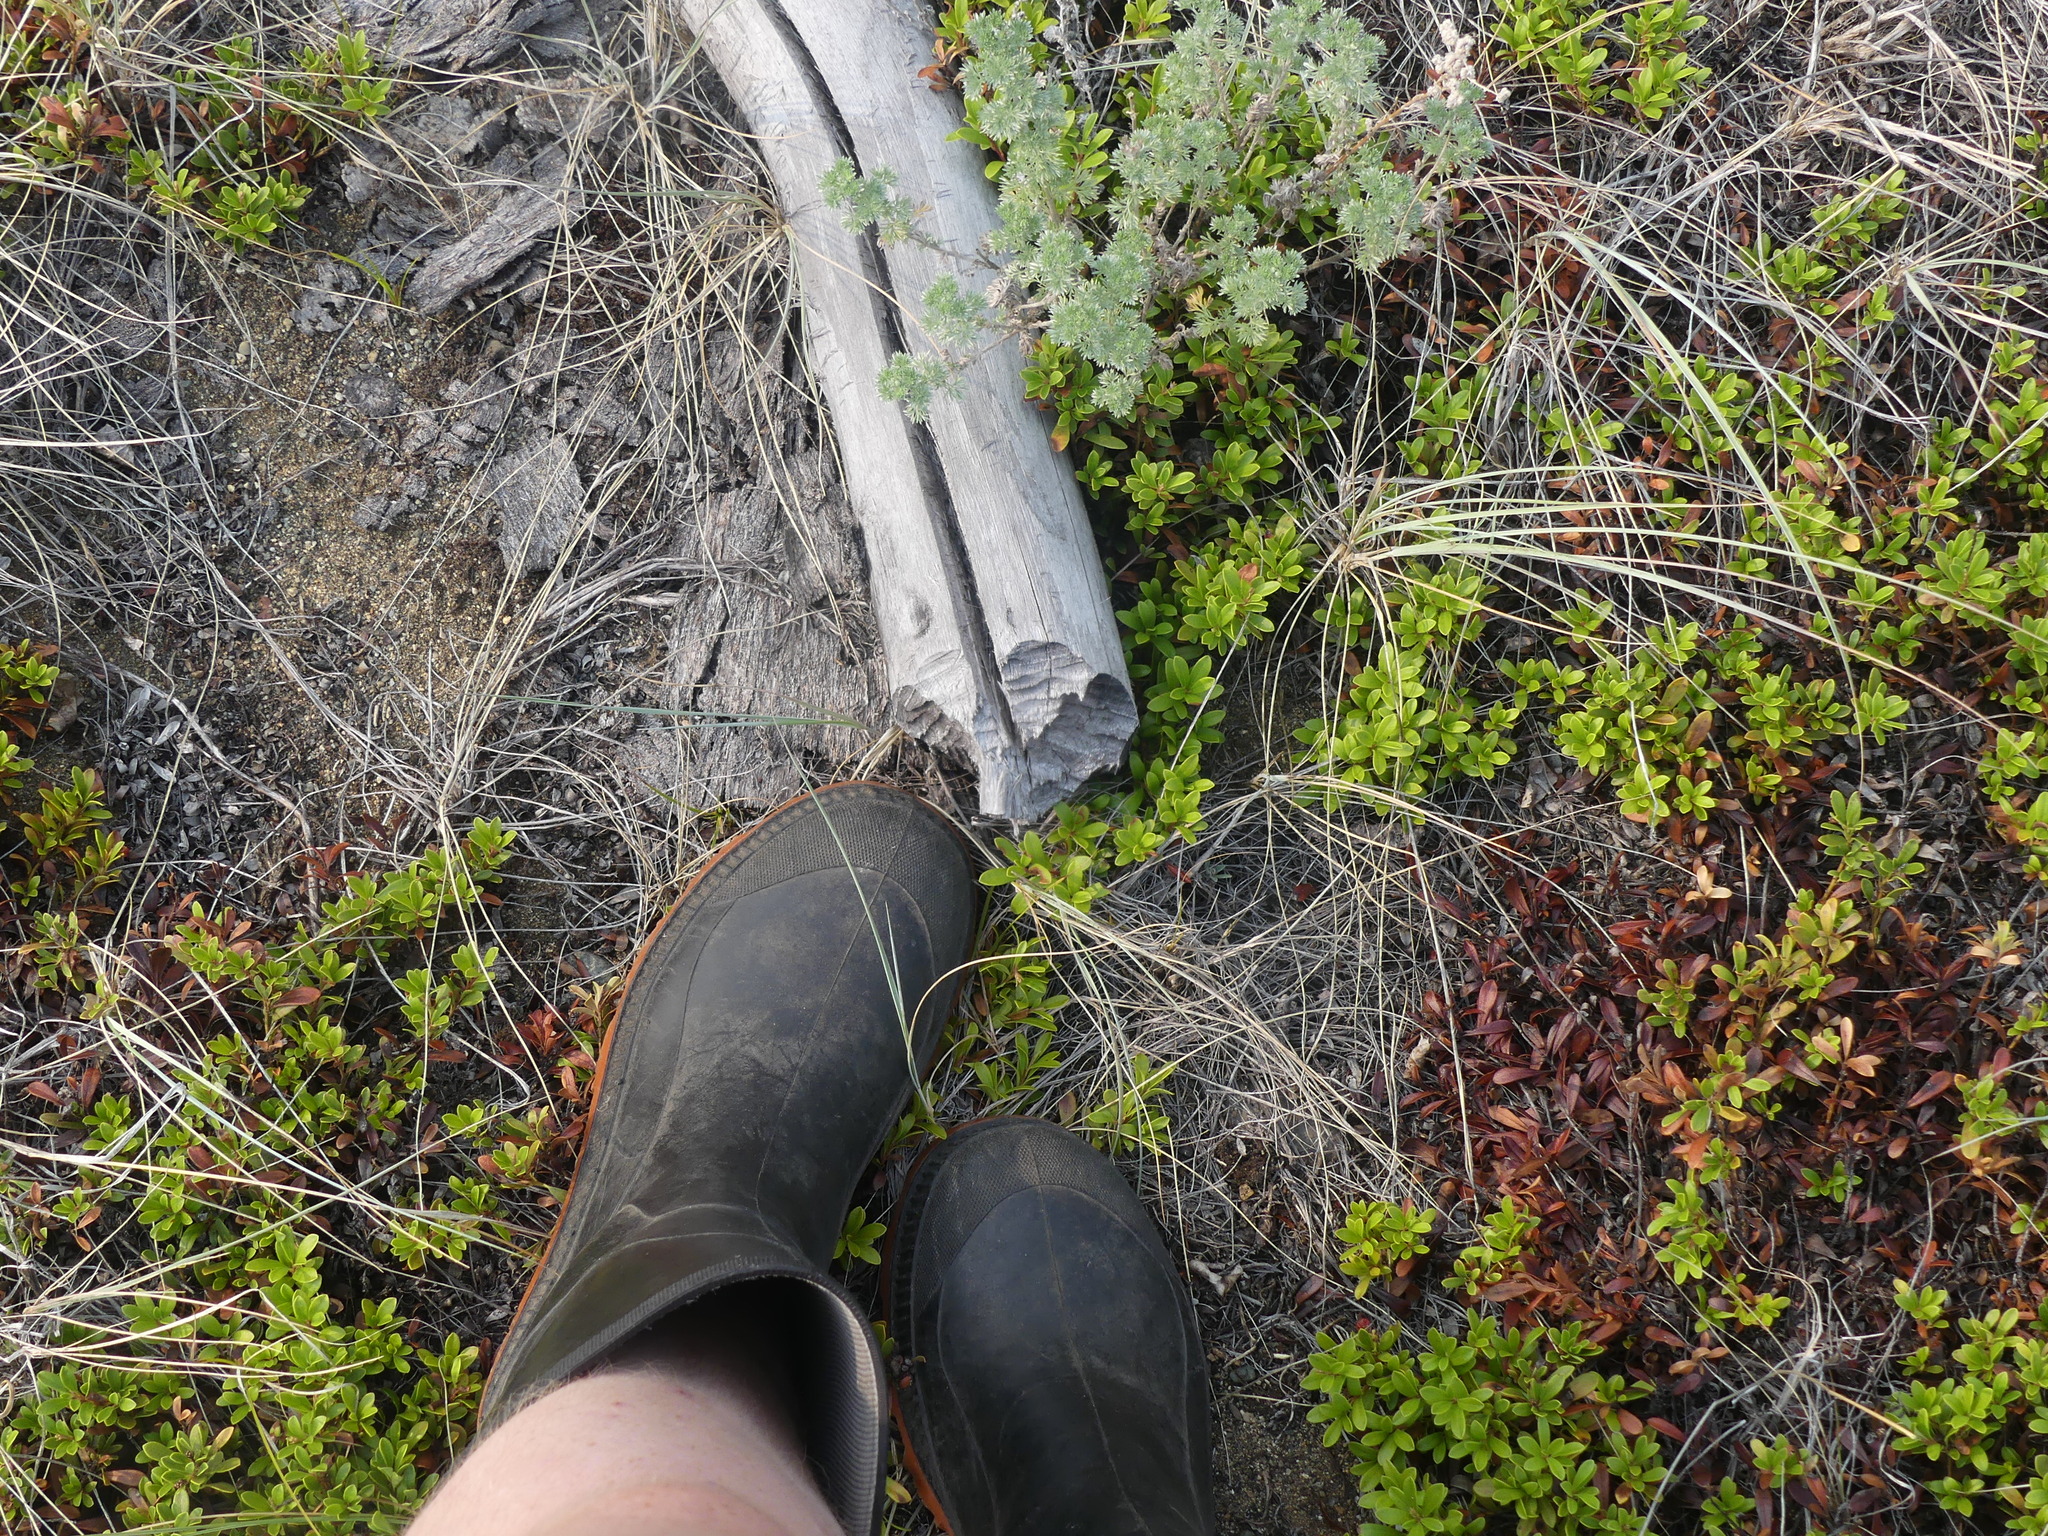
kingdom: Plantae
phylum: Tracheophyta
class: Magnoliopsida
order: Ericales
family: Ericaceae
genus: Arctostaphylos
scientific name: Arctostaphylos uva-ursi
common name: Bearberry
